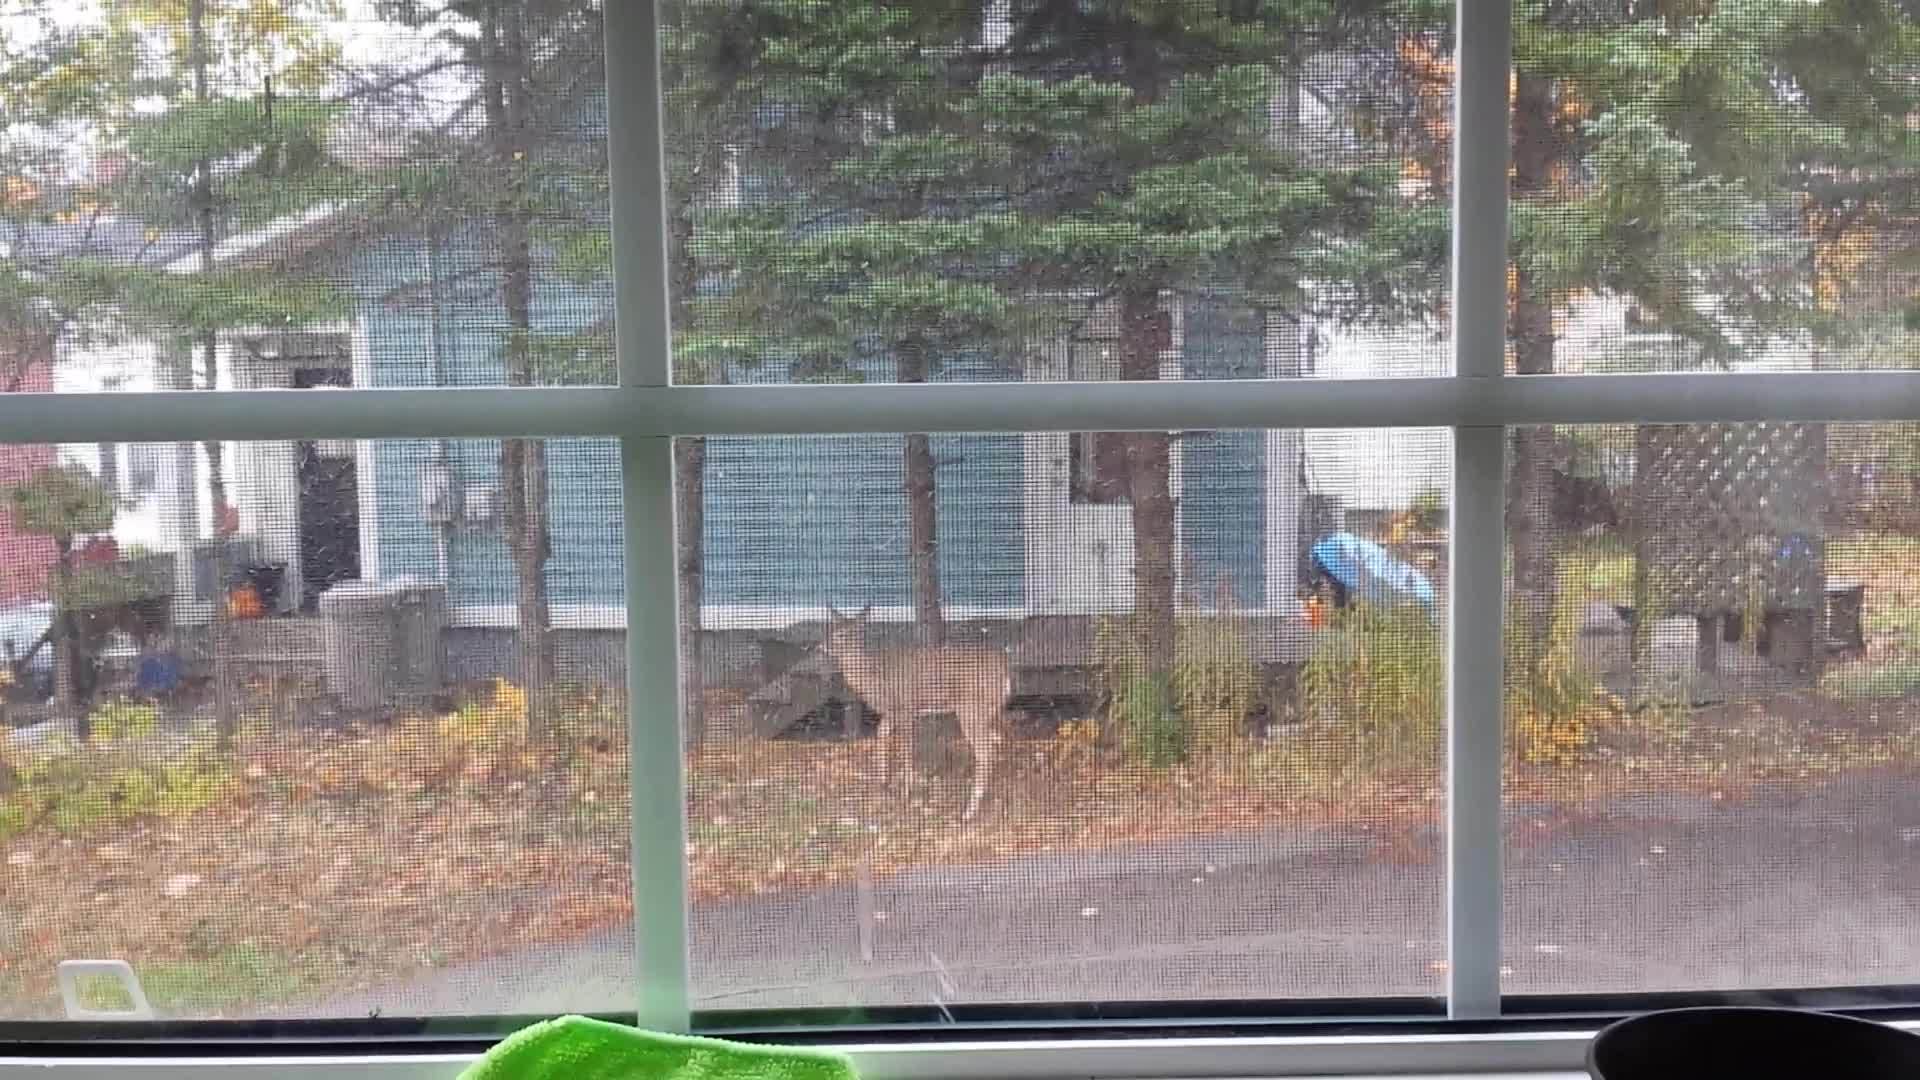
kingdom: Animalia
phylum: Chordata
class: Mammalia
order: Artiodactyla
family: Cervidae
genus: Odocoileus
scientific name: Odocoileus virginianus
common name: White-tailed deer
